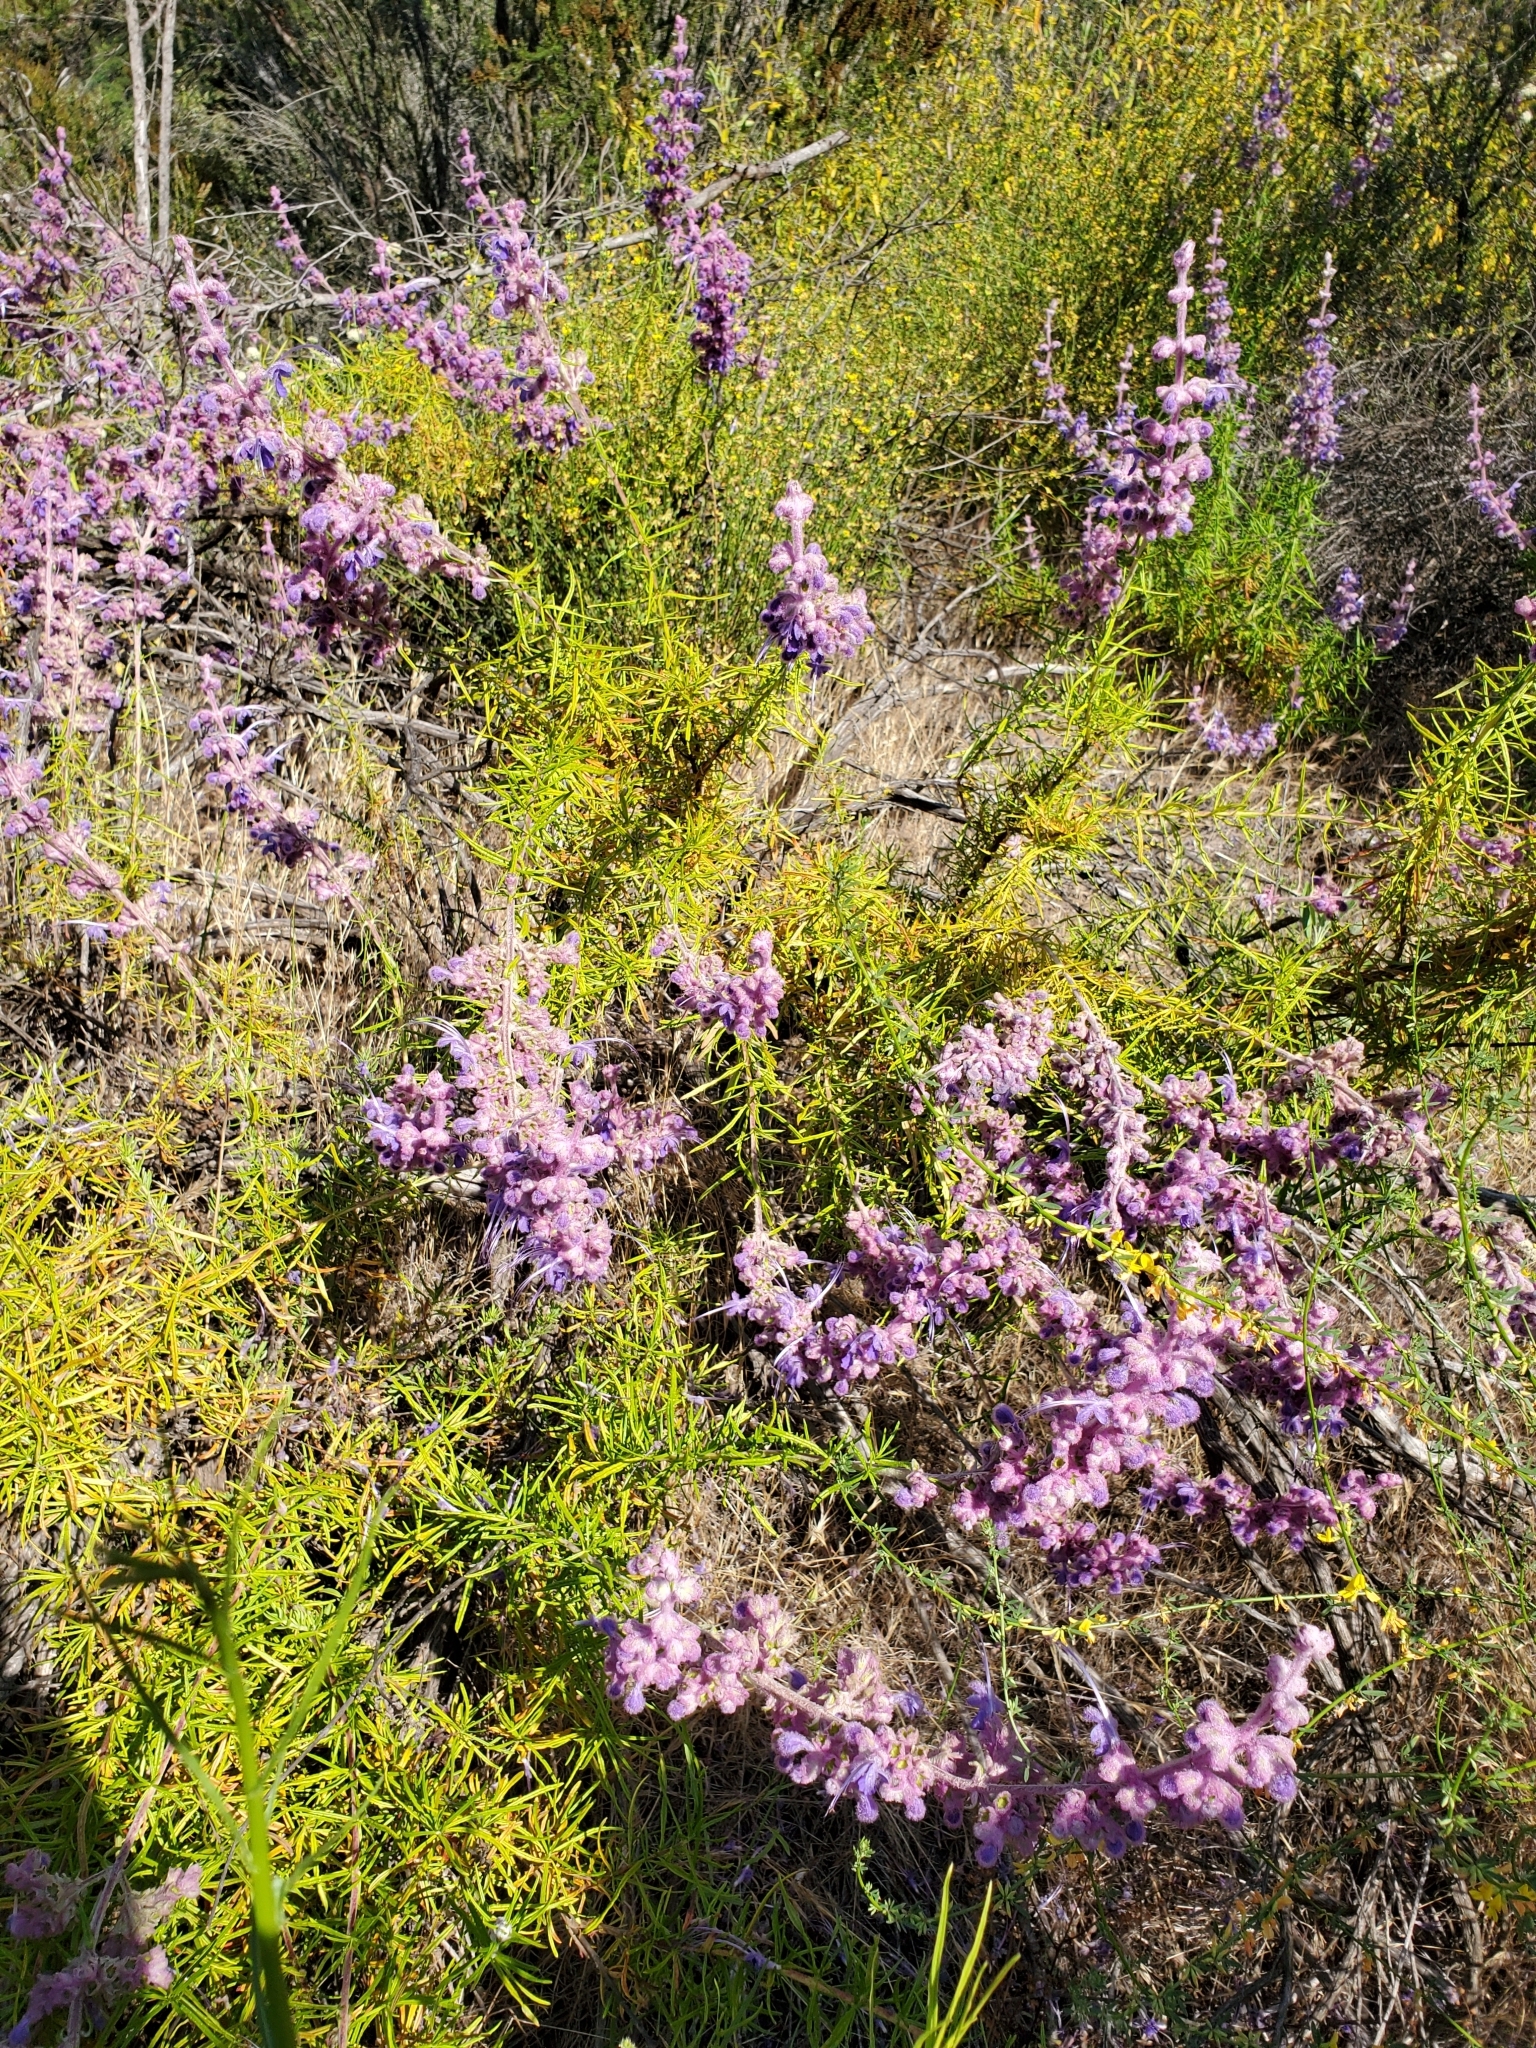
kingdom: Plantae
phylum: Tracheophyta
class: Magnoliopsida
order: Lamiales
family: Lamiaceae
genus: Trichostema
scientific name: Trichostema lanatum
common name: Woolly bluecurls
